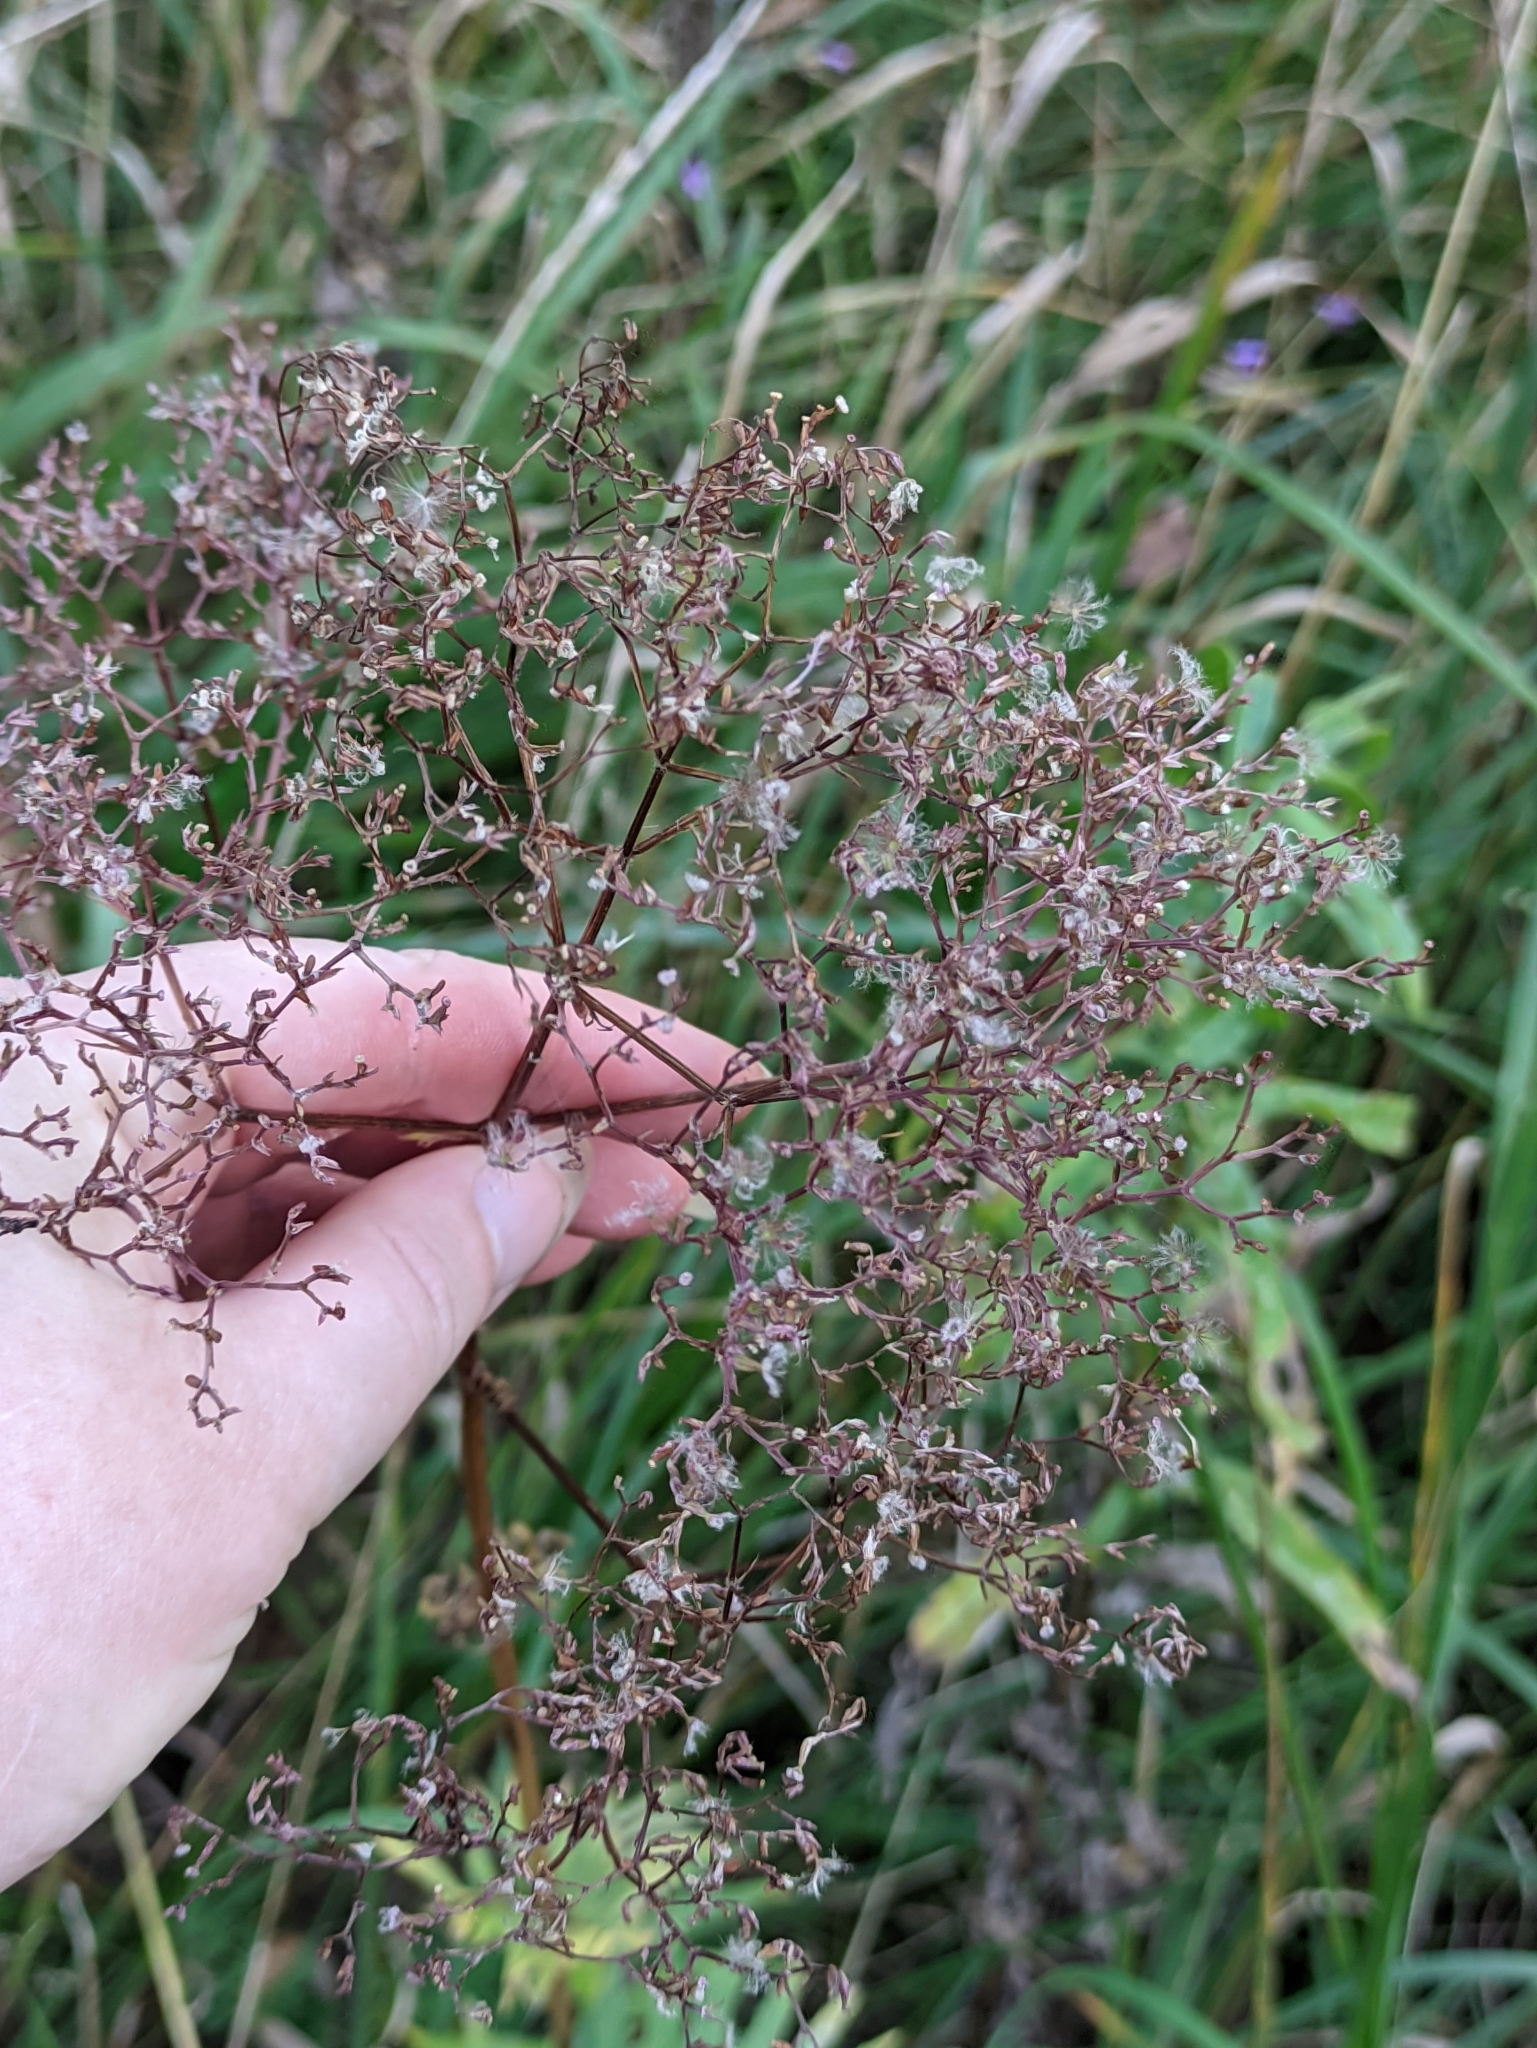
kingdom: Plantae
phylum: Tracheophyta
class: Magnoliopsida
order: Dipsacales
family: Caprifoliaceae
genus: Valeriana
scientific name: Valeriana officinalis
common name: Common valerian
